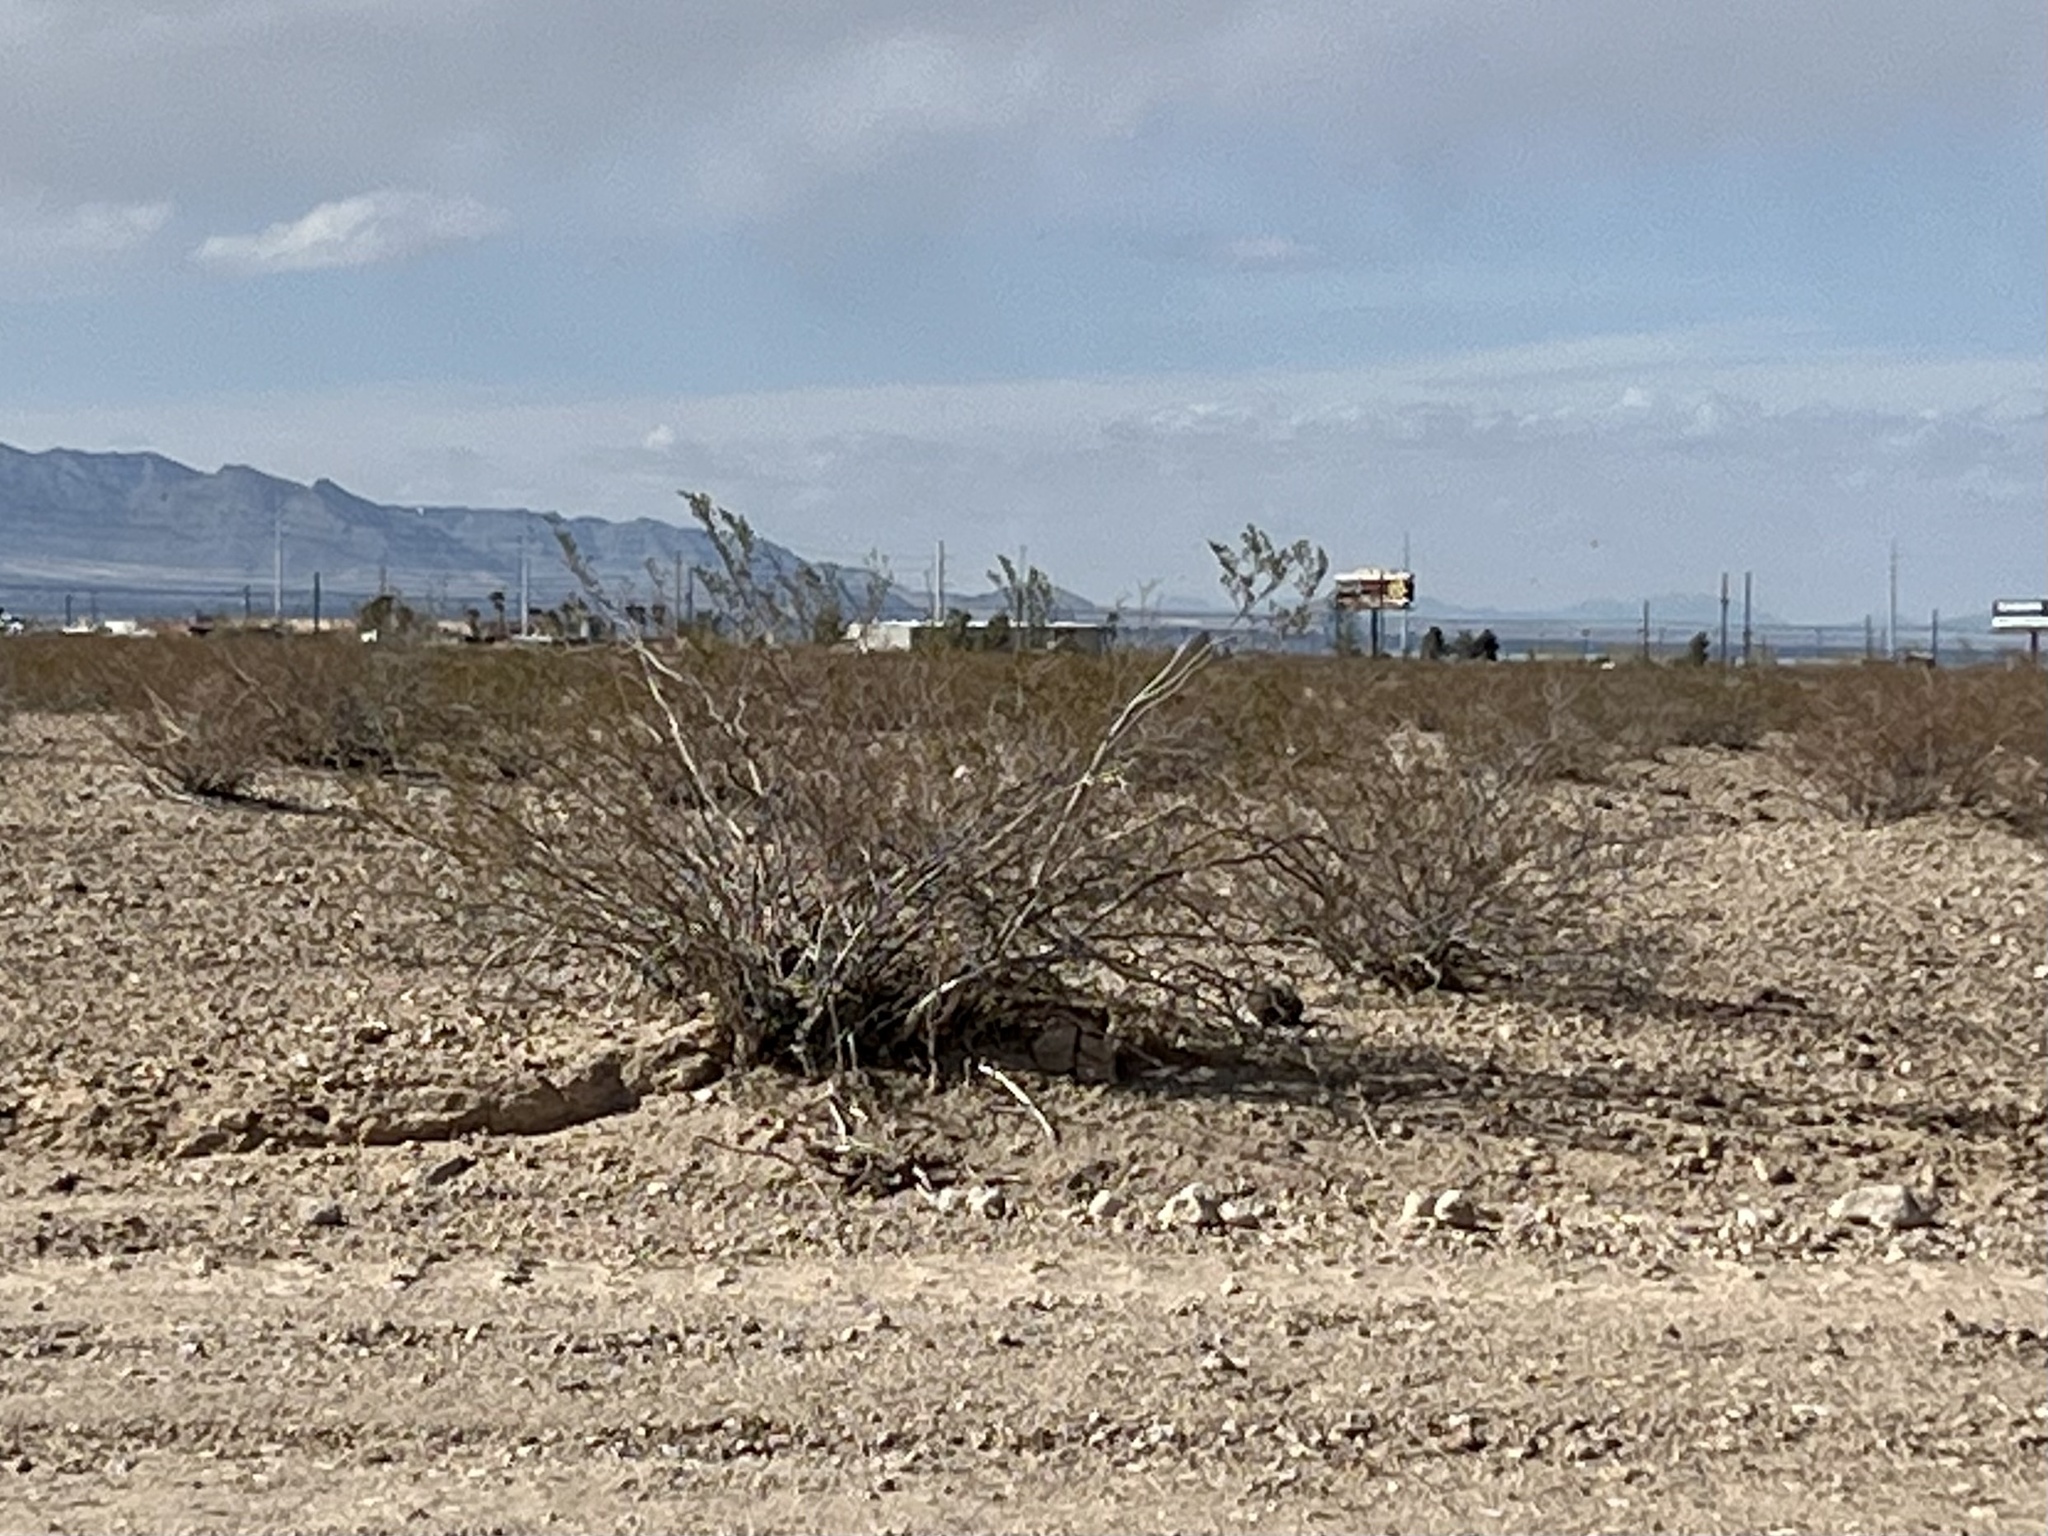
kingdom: Plantae
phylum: Tracheophyta
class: Magnoliopsida
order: Zygophyllales
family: Zygophyllaceae
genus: Larrea
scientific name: Larrea tridentata
